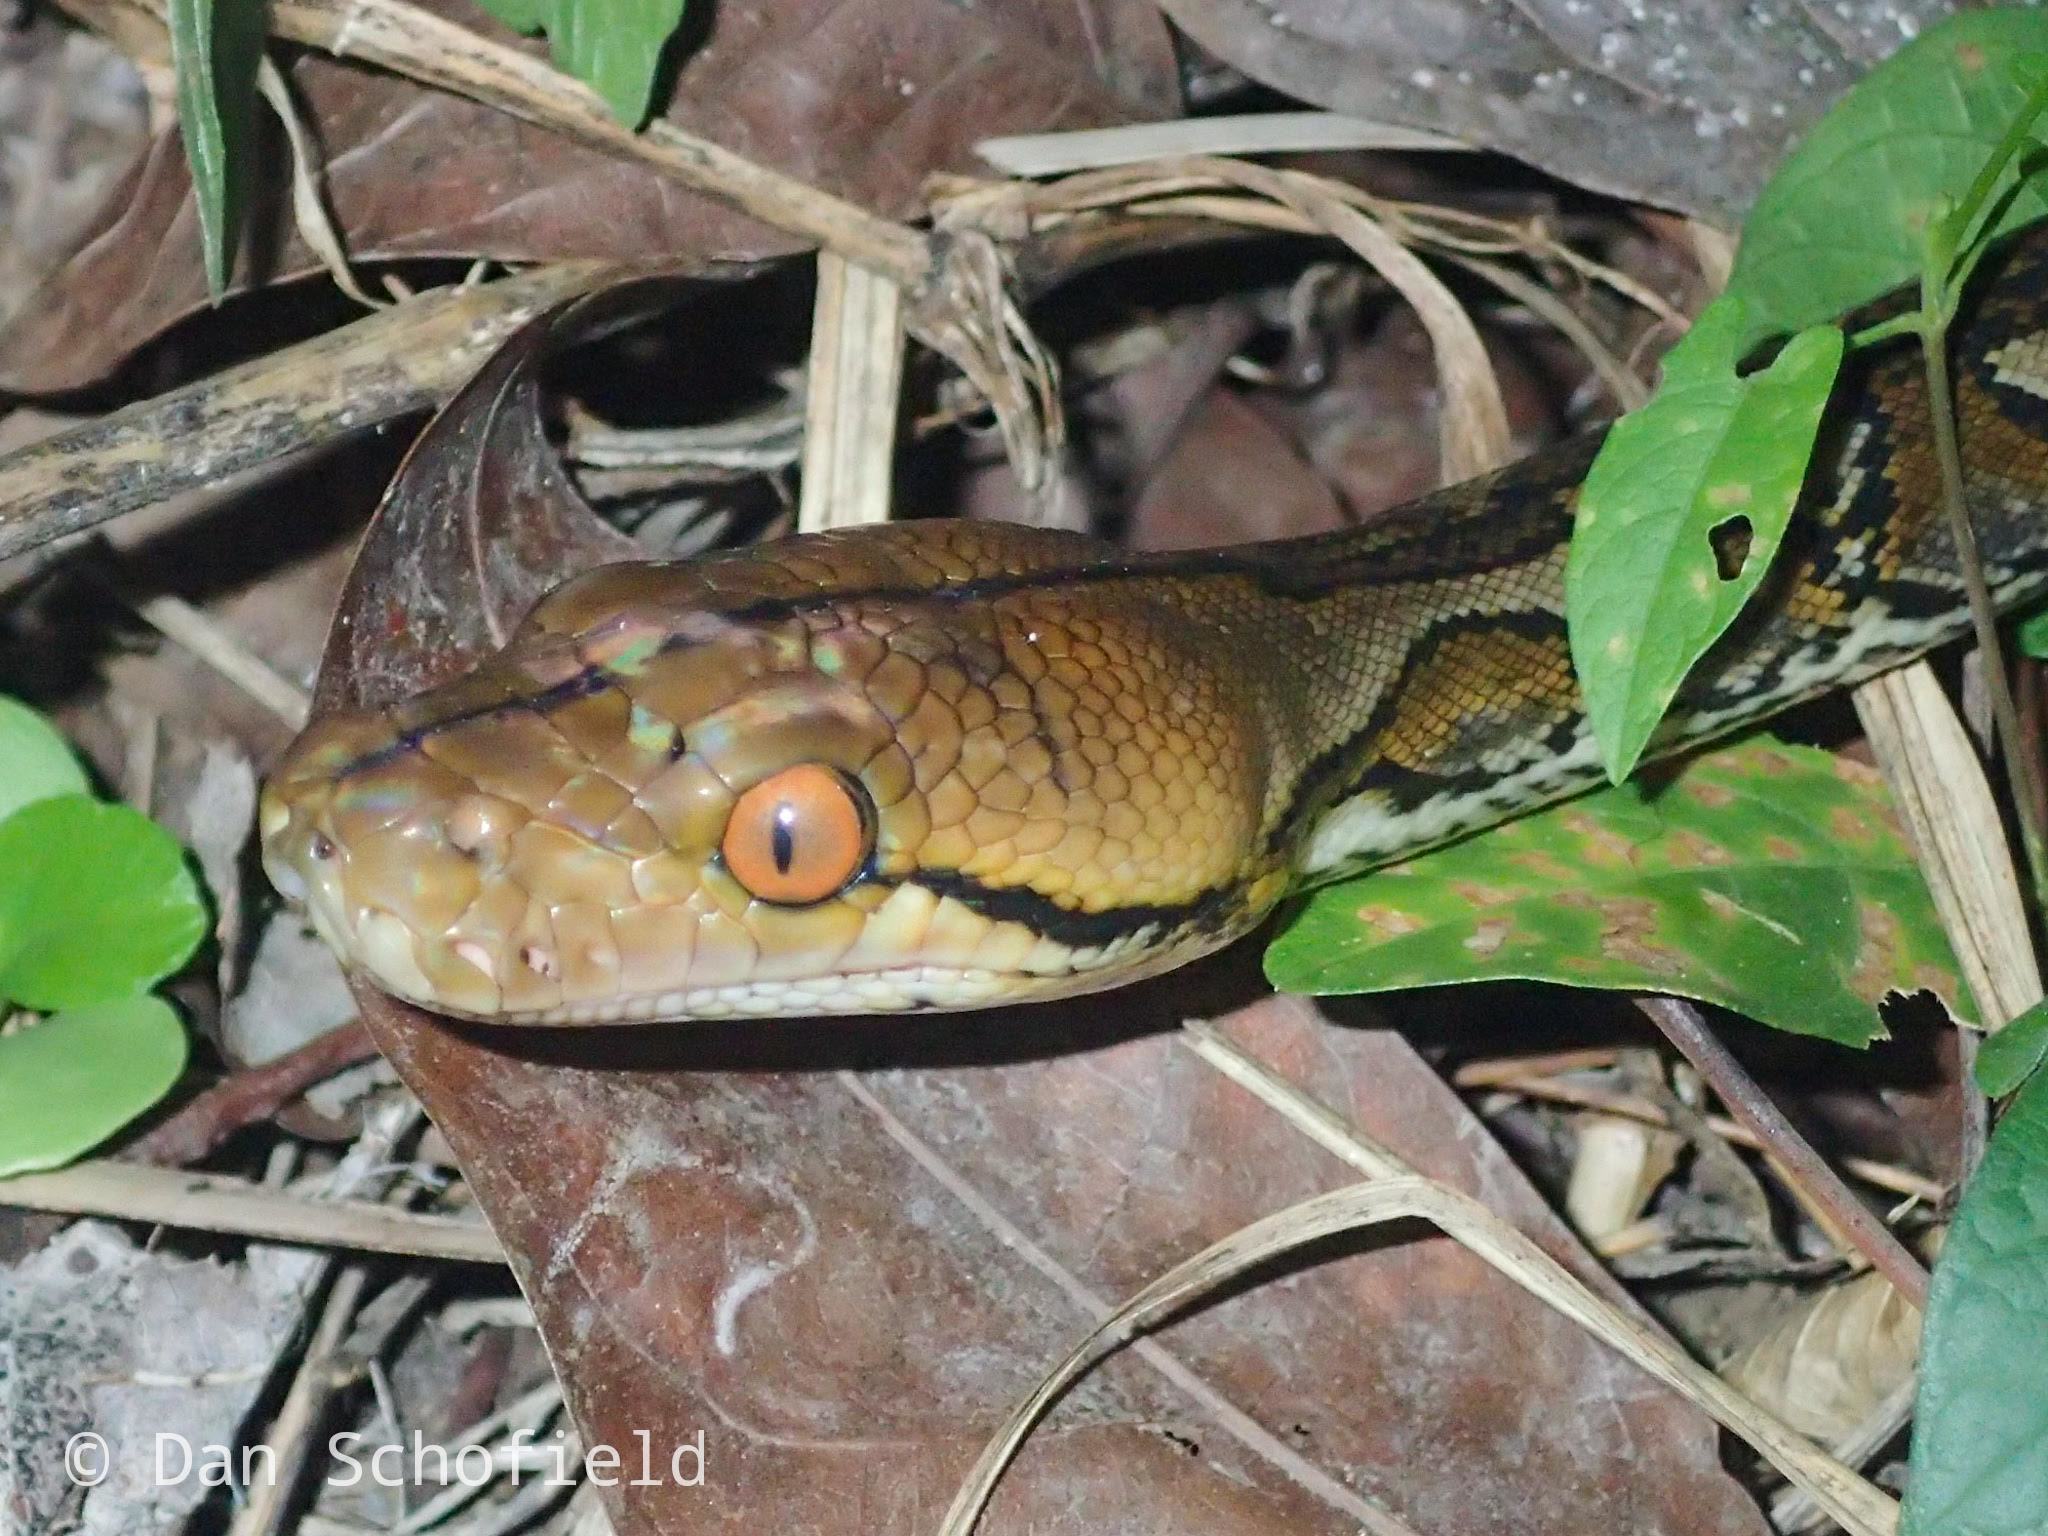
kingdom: Animalia
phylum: Chordata
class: Squamata
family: Pythonidae
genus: Malayopython
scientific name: Malayopython reticulatus
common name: Reticulated python
